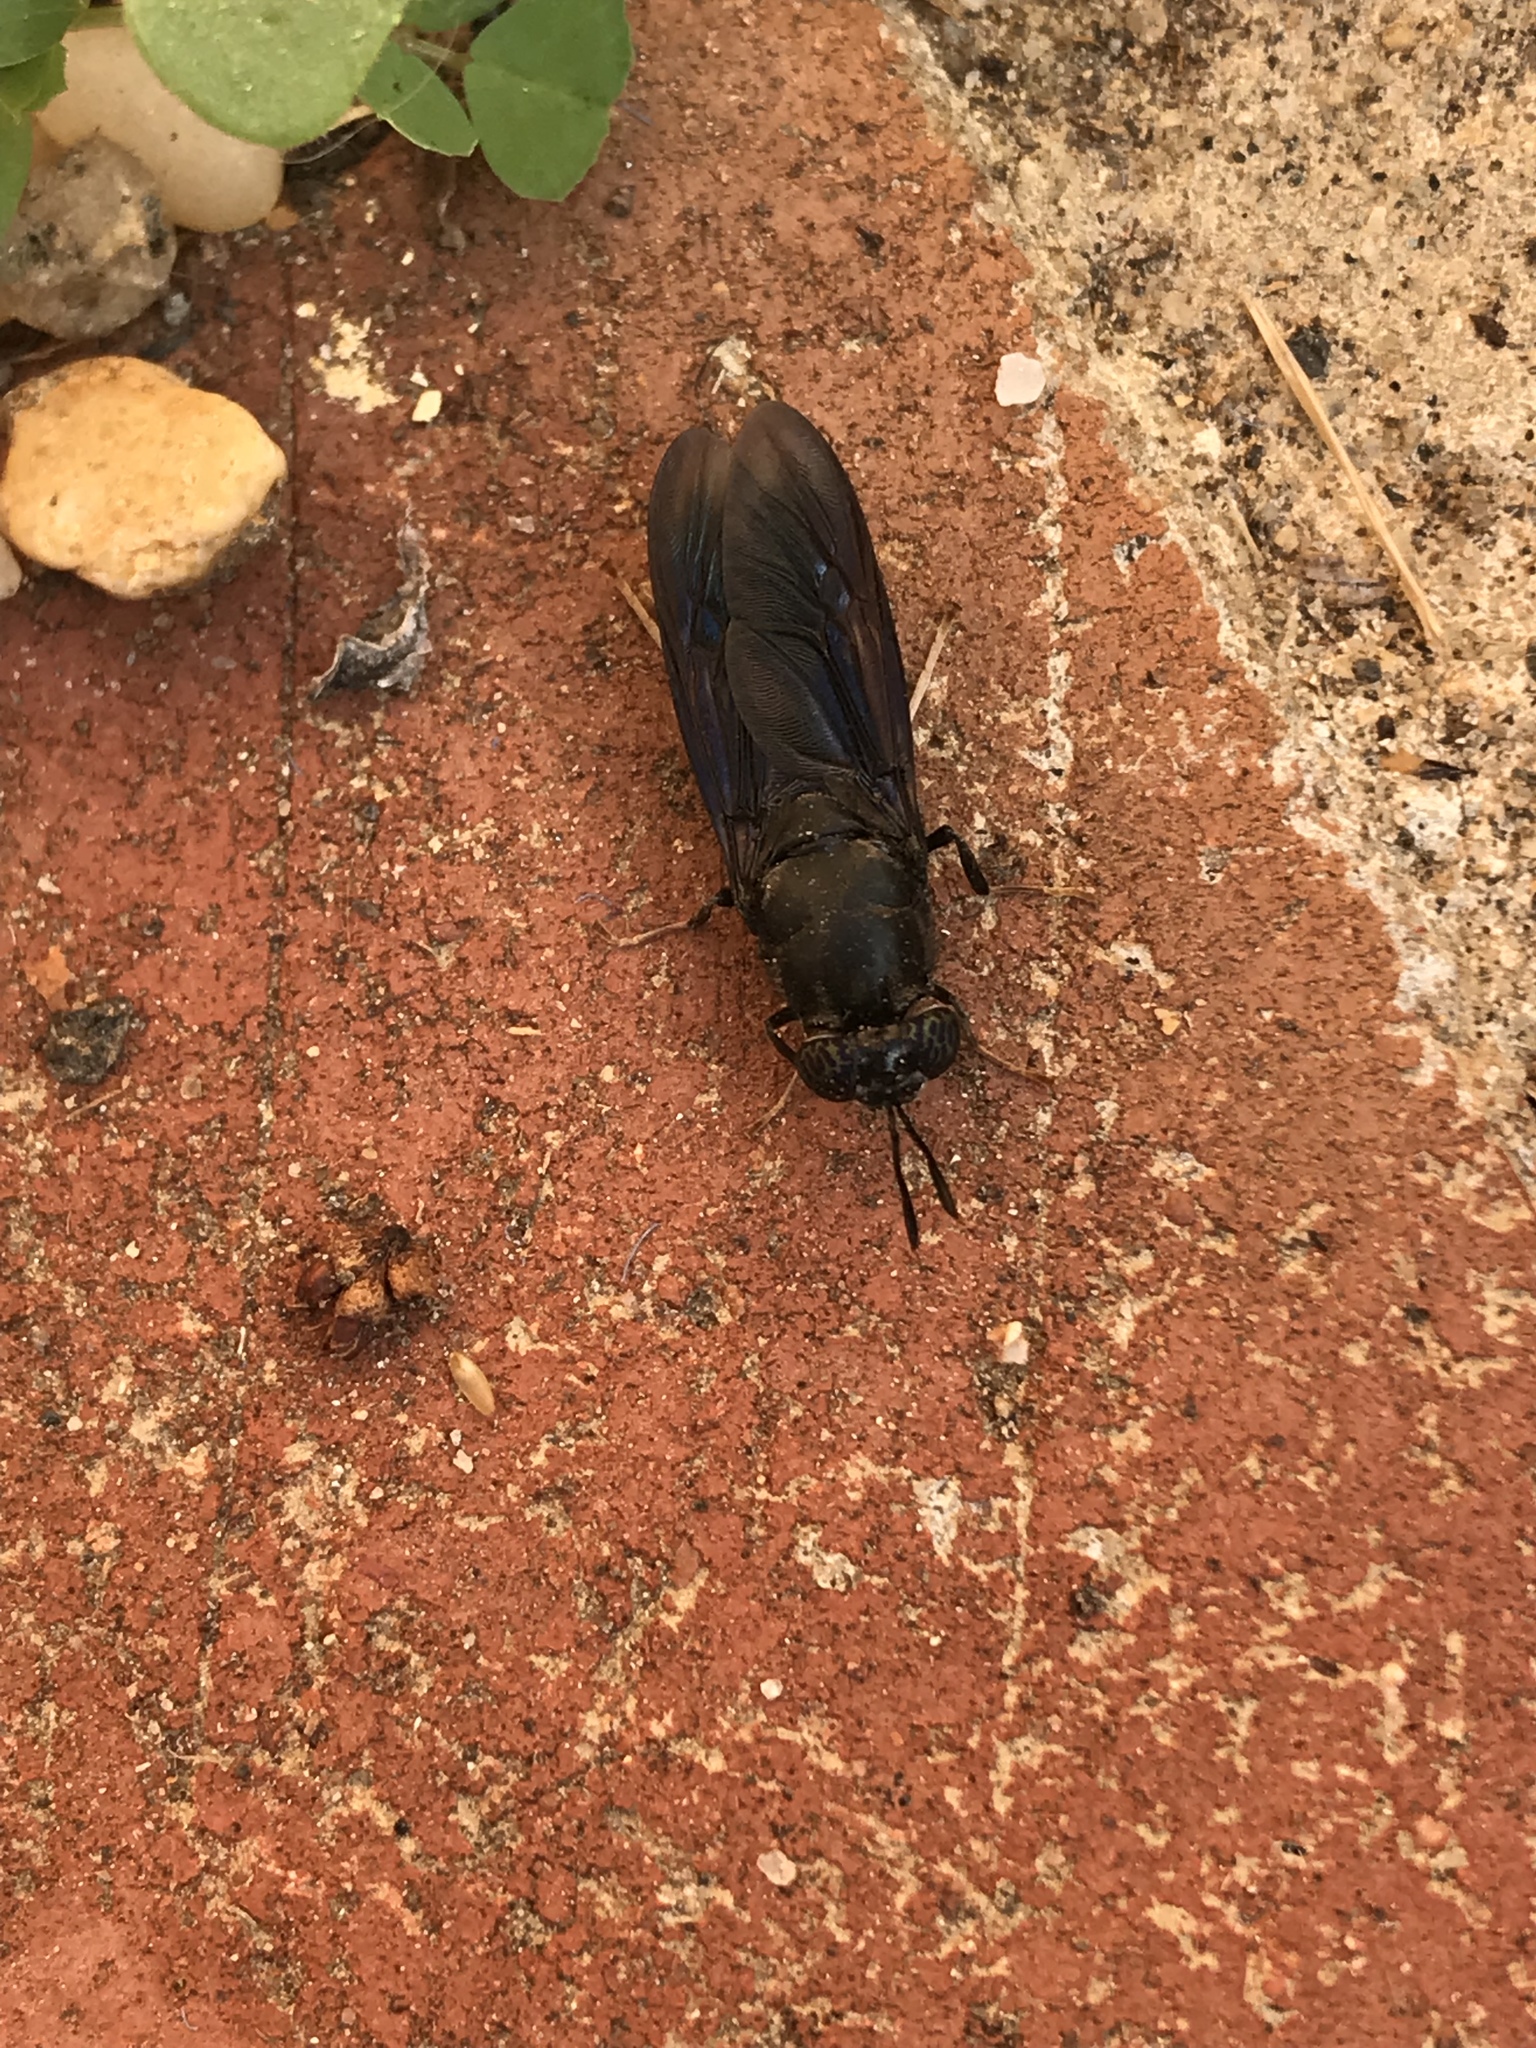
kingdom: Animalia
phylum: Arthropoda
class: Insecta
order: Diptera
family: Stratiomyidae
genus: Hermetia
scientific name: Hermetia illucens
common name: Black soldier fly
